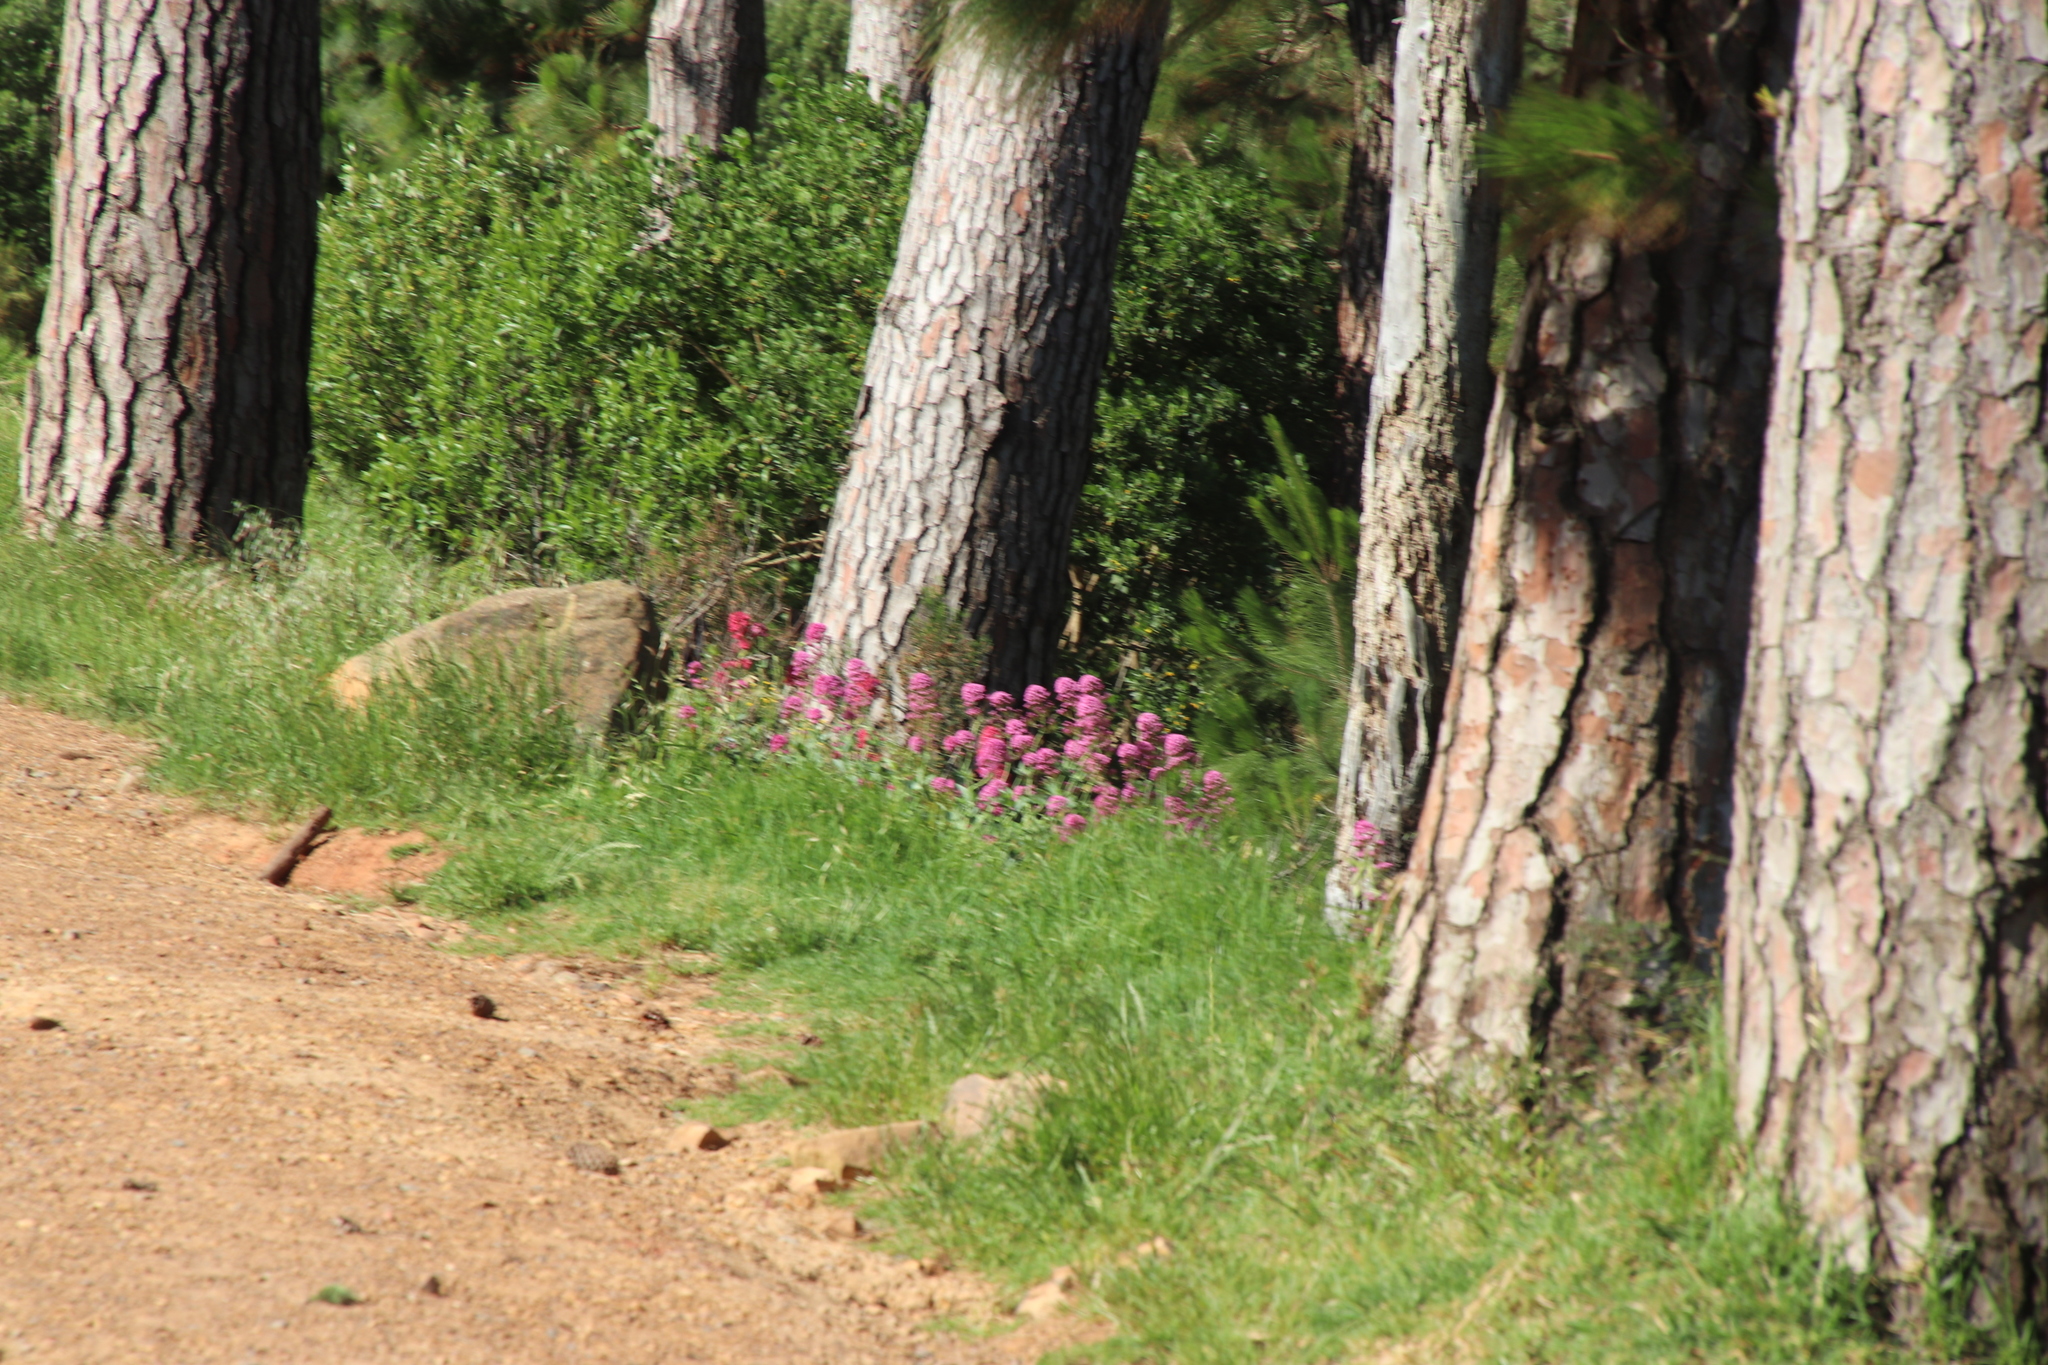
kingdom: Plantae
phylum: Tracheophyta
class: Magnoliopsida
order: Dipsacales
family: Caprifoliaceae
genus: Centranthus
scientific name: Centranthus ruber
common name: Red valerian
